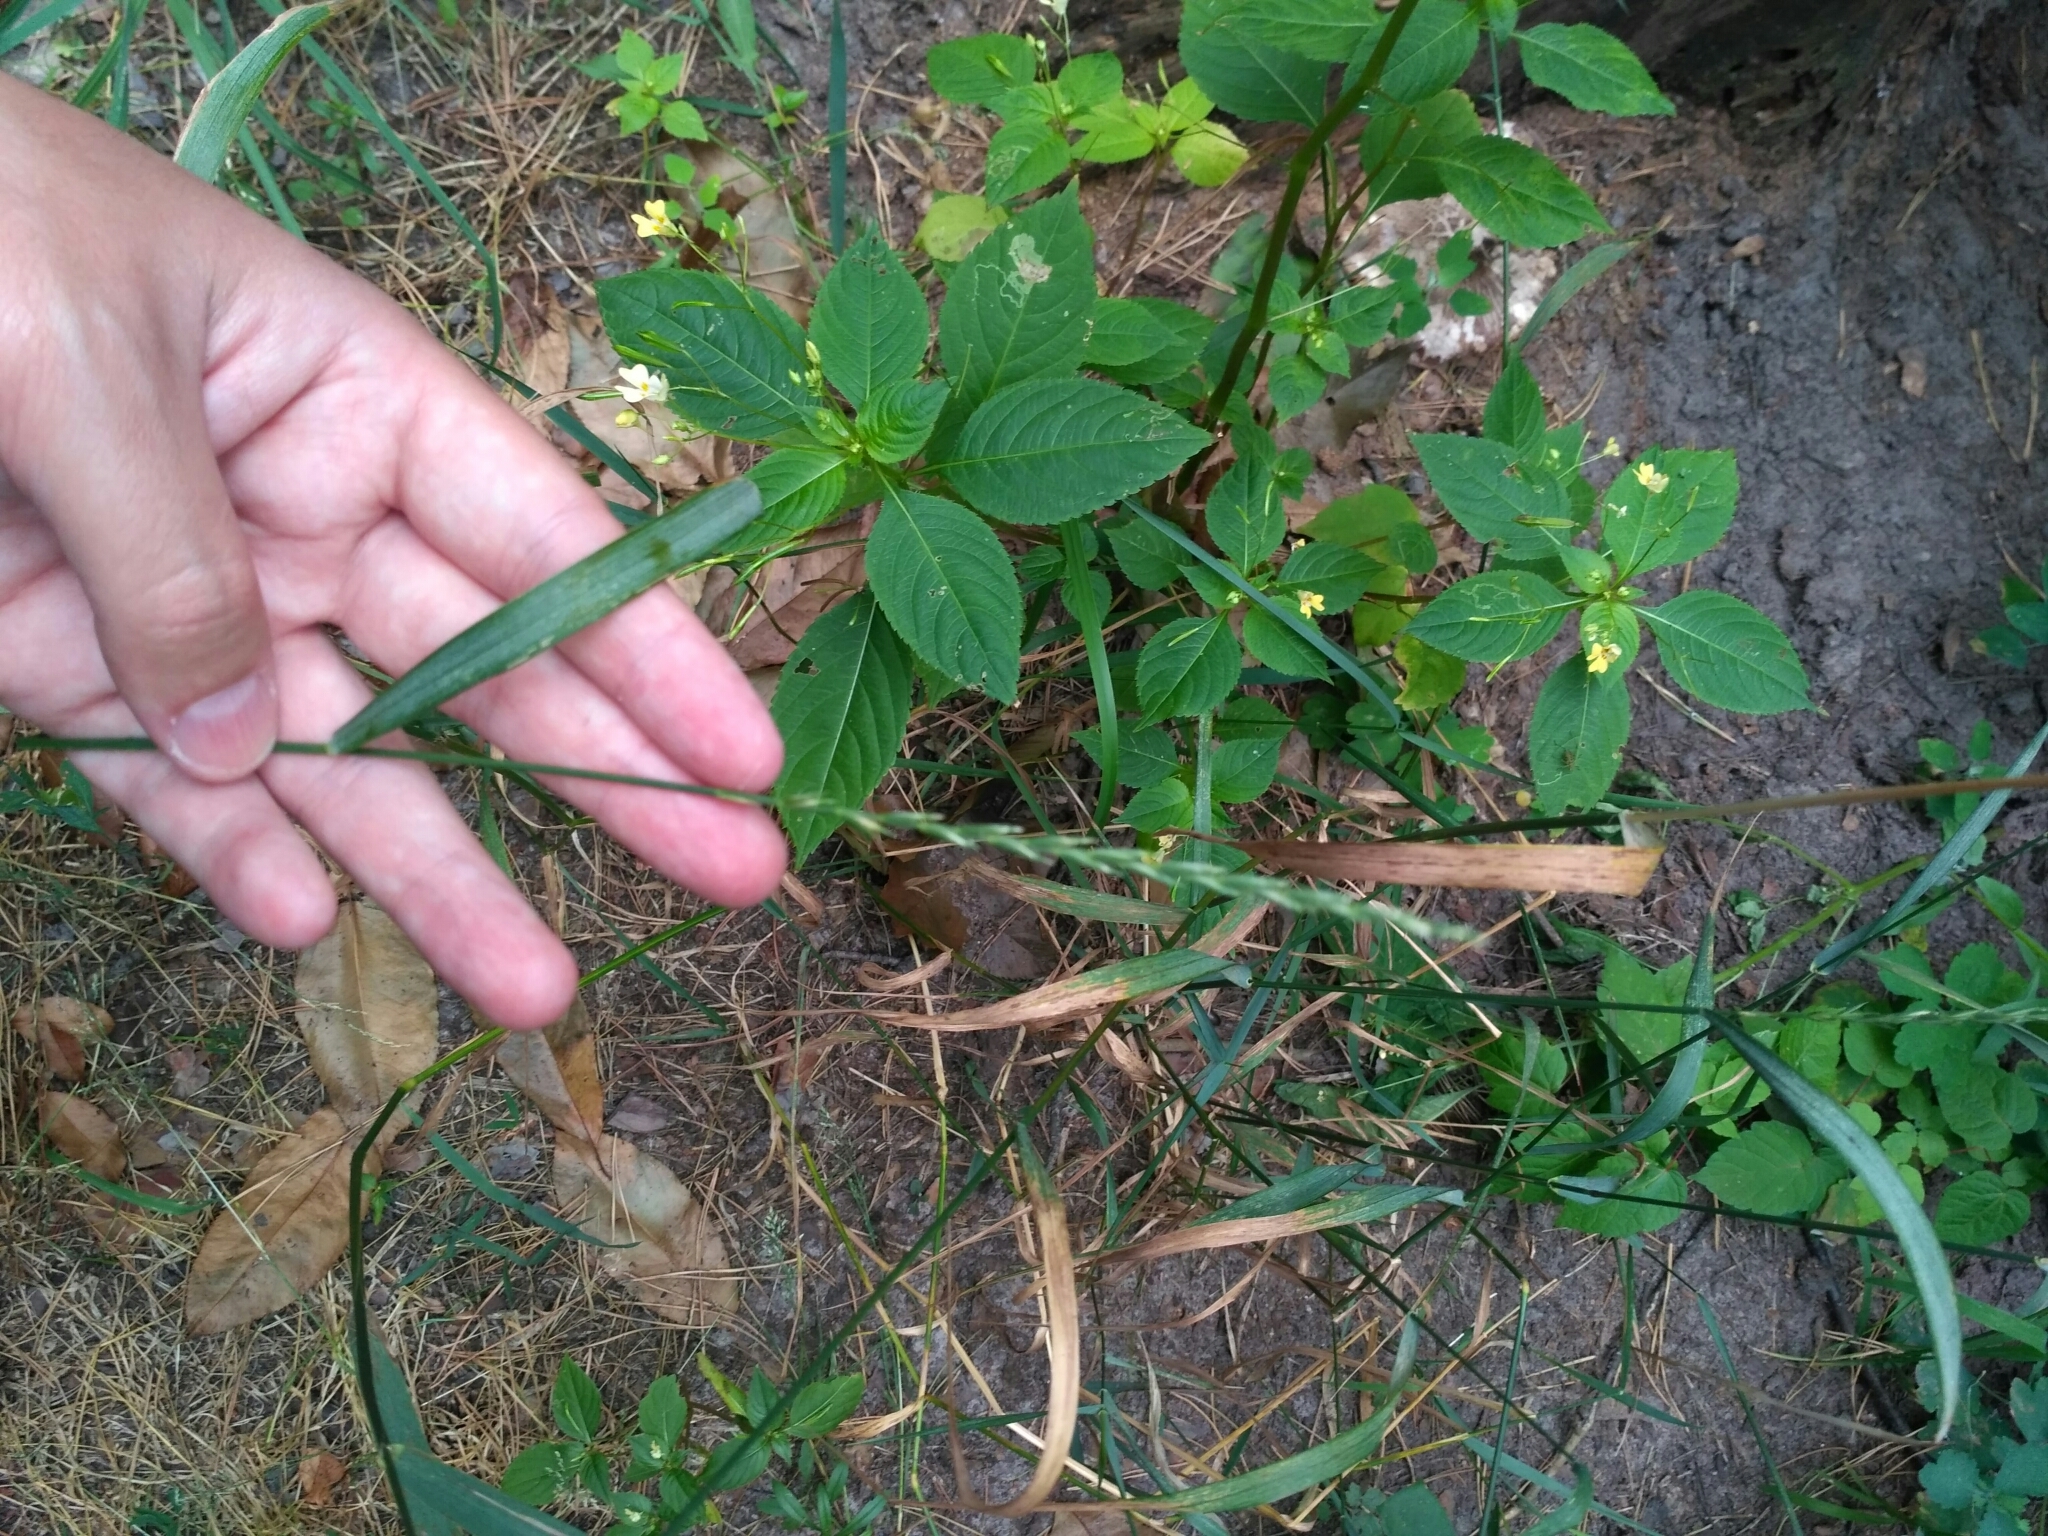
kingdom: Plantae
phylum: Tracheophyta
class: Liliopsida
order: Poales
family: Poaceae
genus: Elymus
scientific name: Elymus repens
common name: Quackgrass
